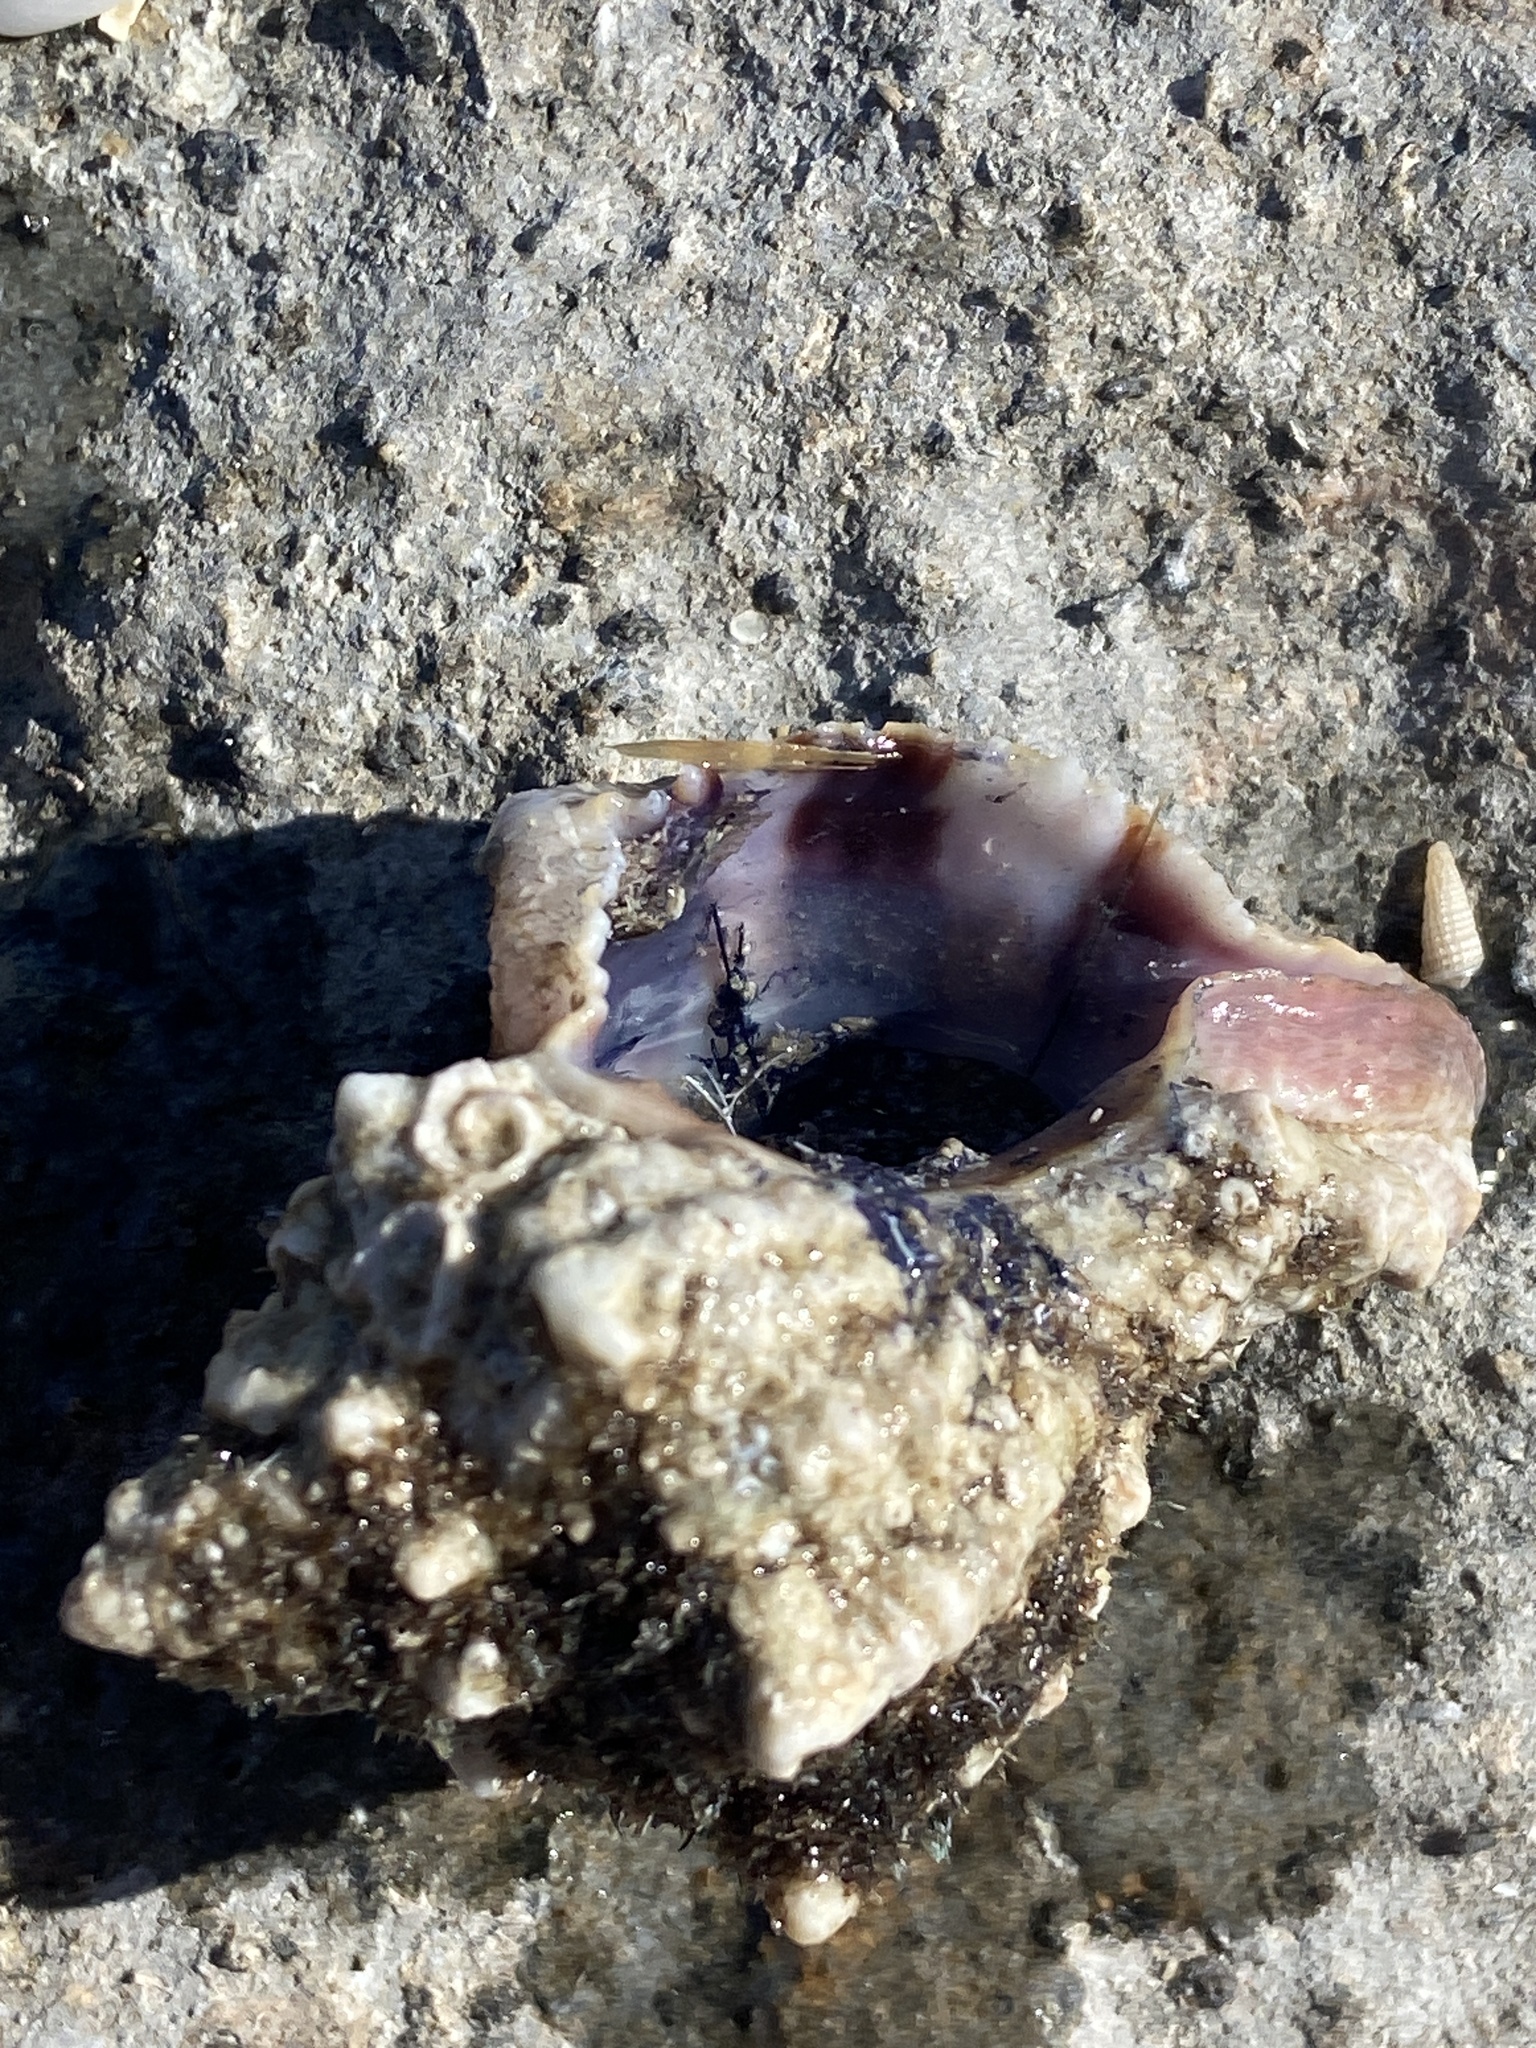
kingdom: Animalia
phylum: Mollusca
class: Gastropoda
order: Neogastropoda
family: Muricidae
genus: Hexaplex
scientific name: Hexaplex trunculus
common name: Banded dye-murex
